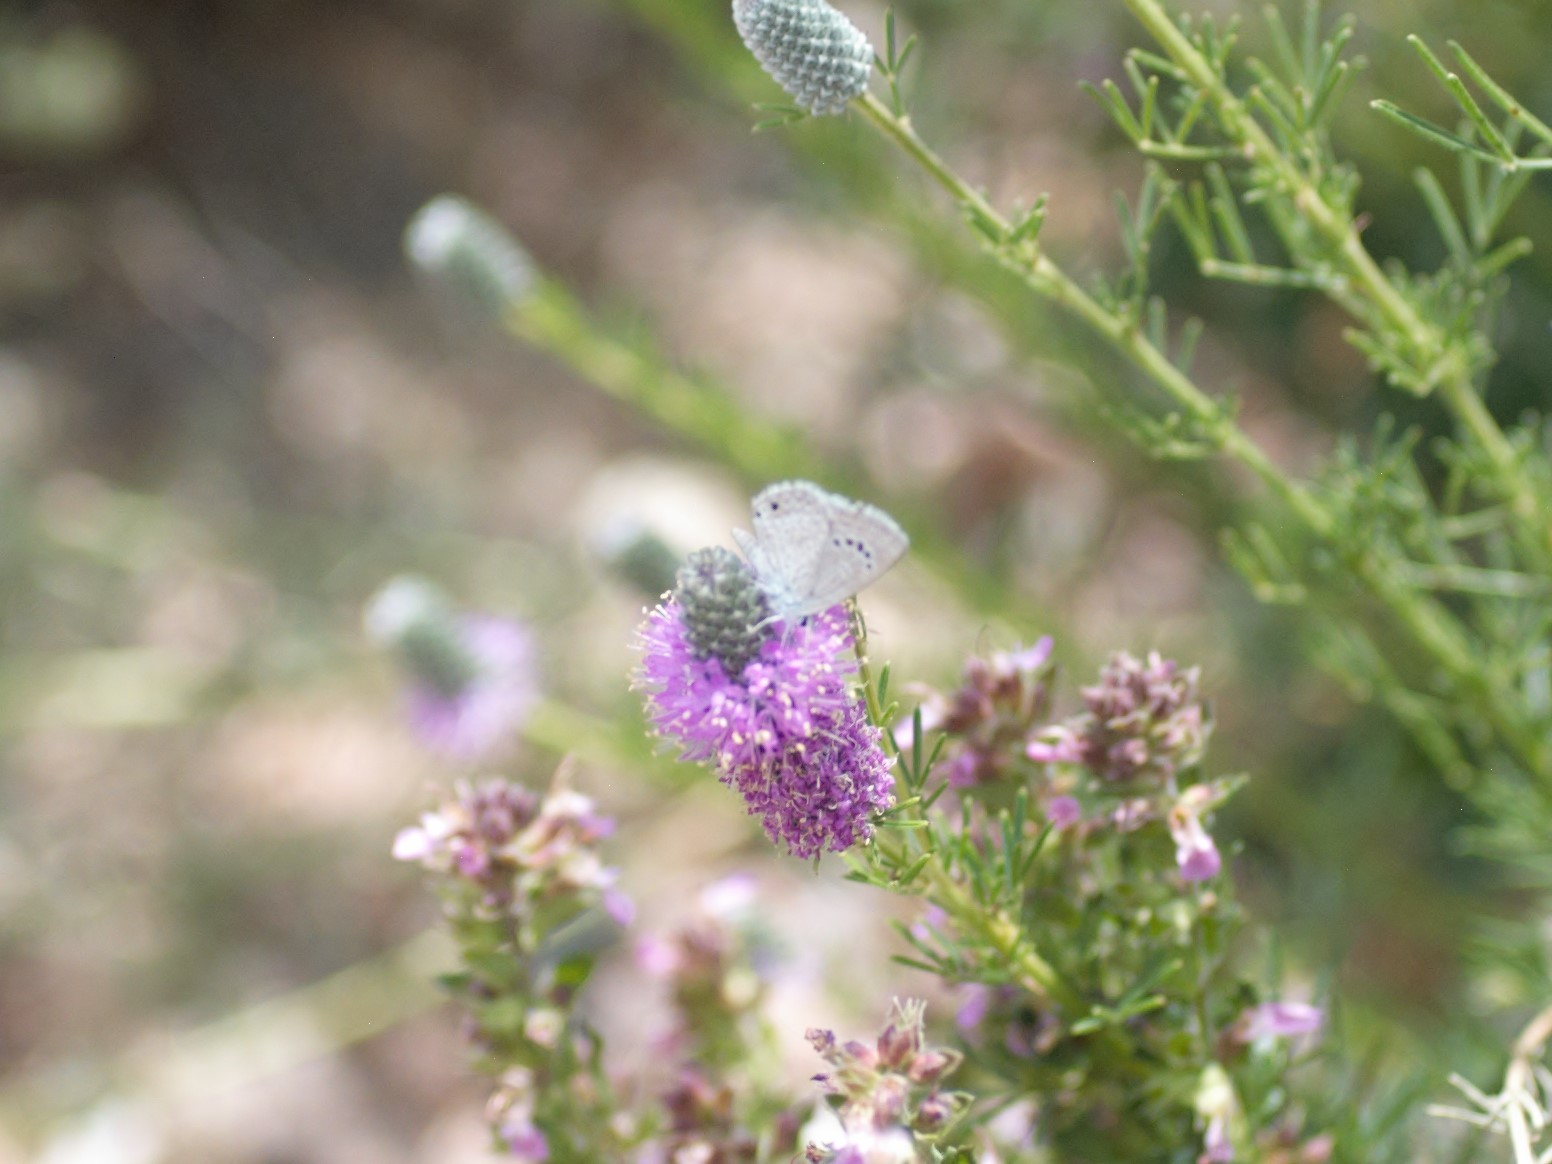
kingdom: Animalia
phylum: Arthropoda
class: Insecta
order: Lepidoptera
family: Lycaenidae
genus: Echinargus
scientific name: Echinargus isola
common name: Reakirt's blue
